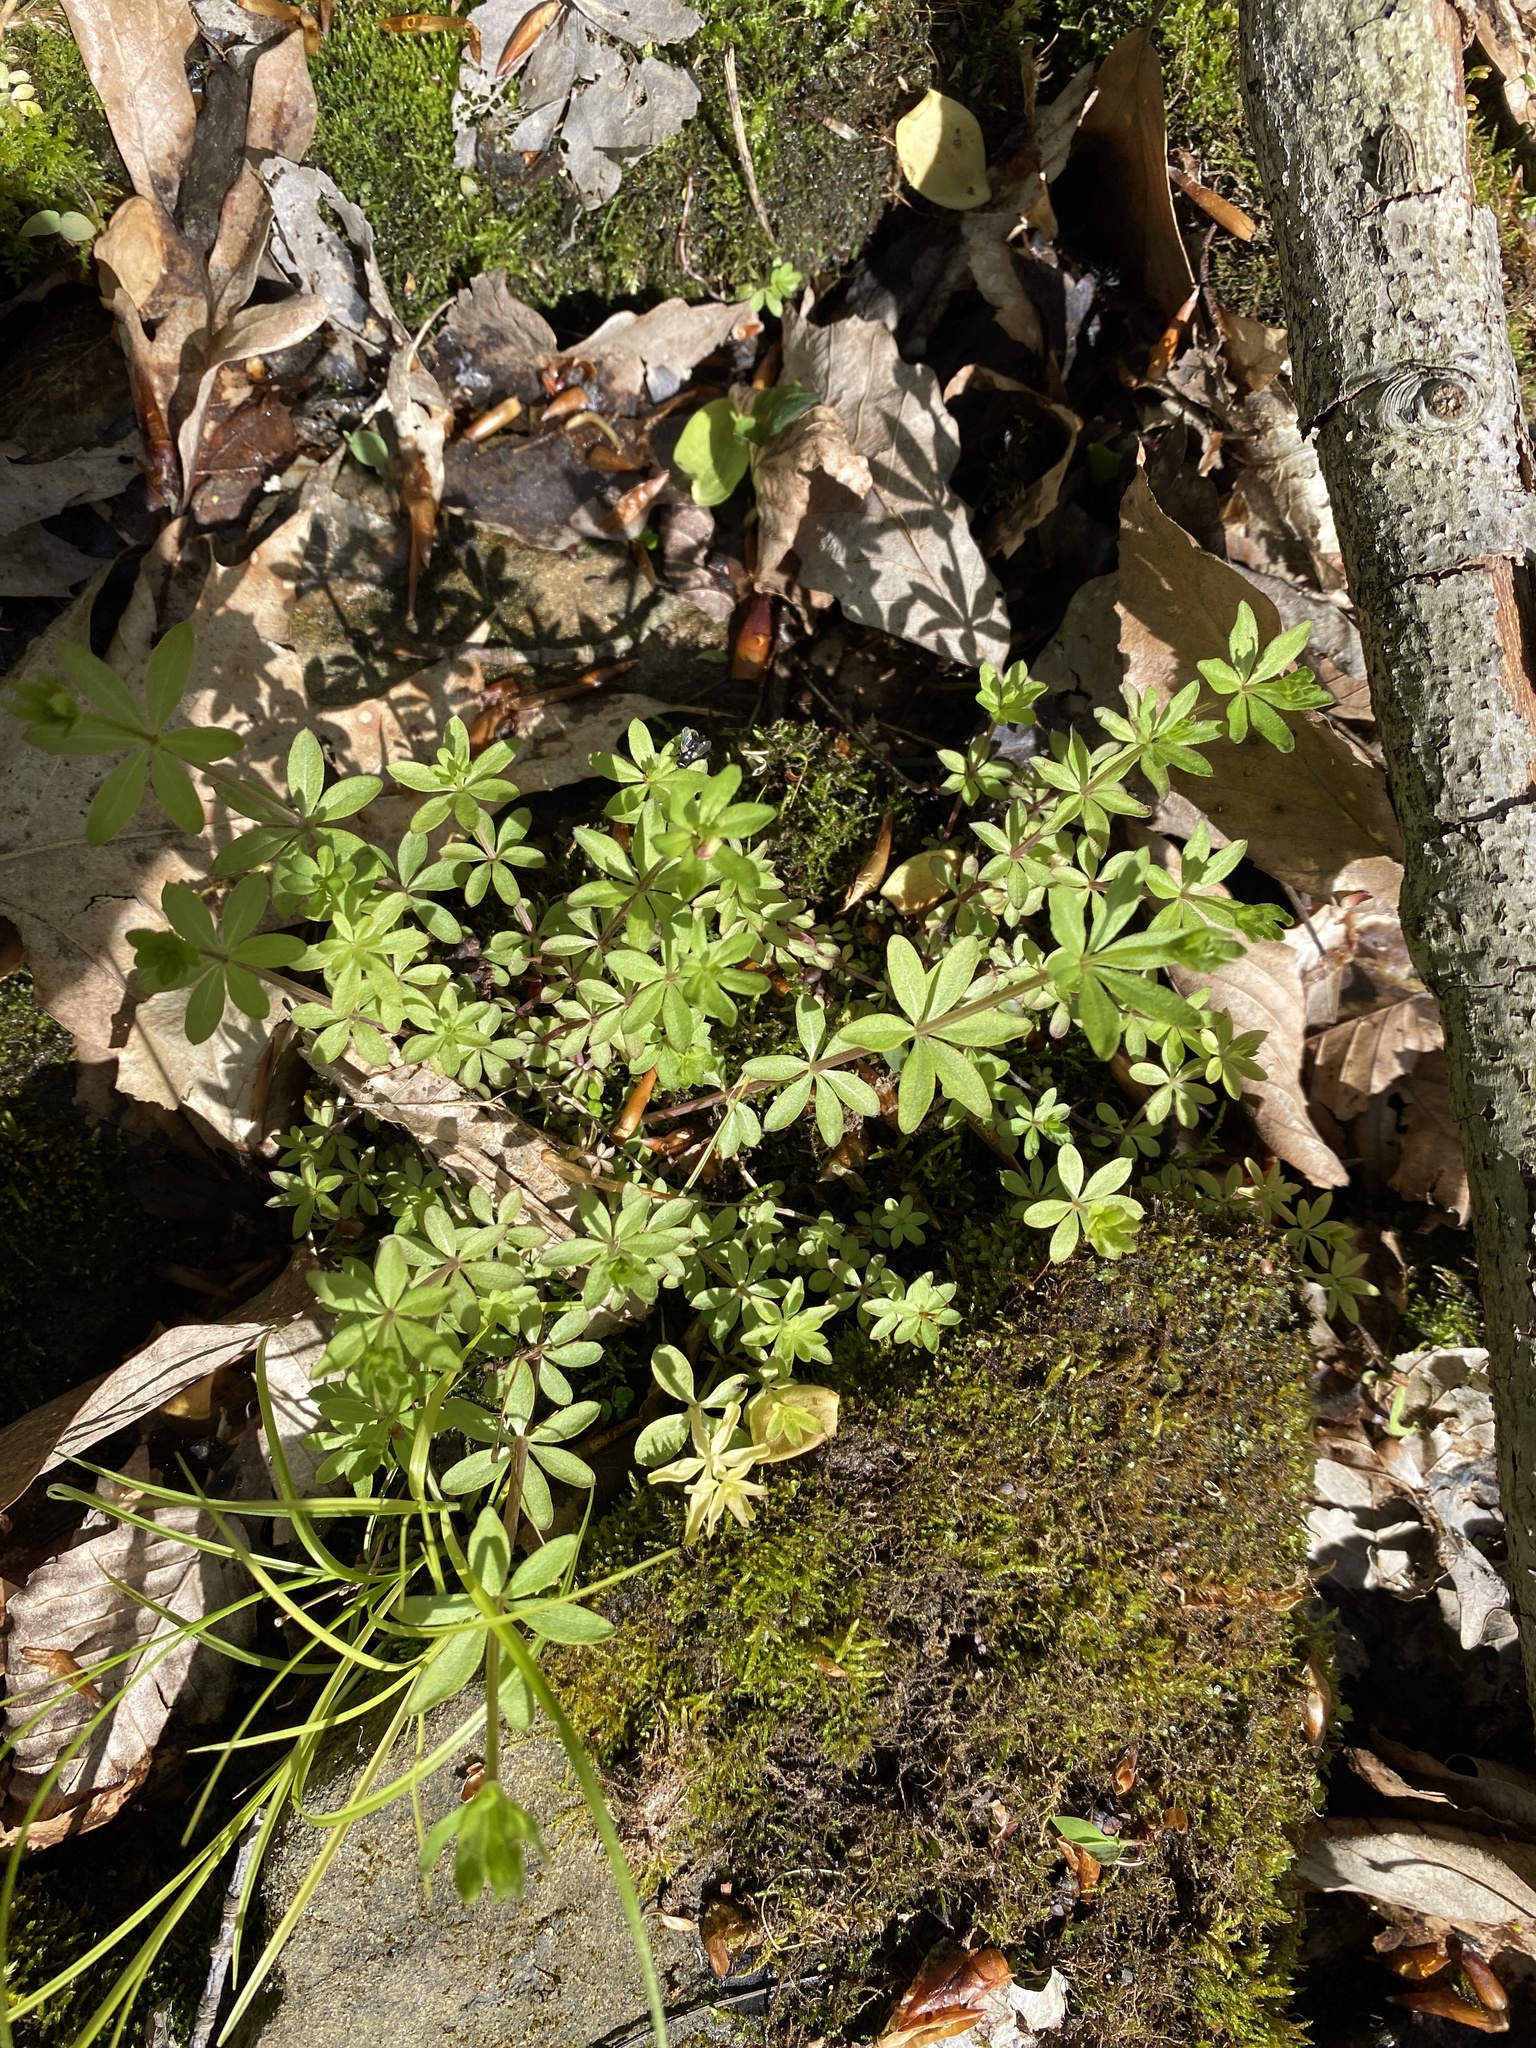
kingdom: Plantae
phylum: Tracheophyta
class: Magnoliopsida
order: Gentianales
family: Rubiaceae
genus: Galium
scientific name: Galium triflorum
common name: Fragrant bedstraw
